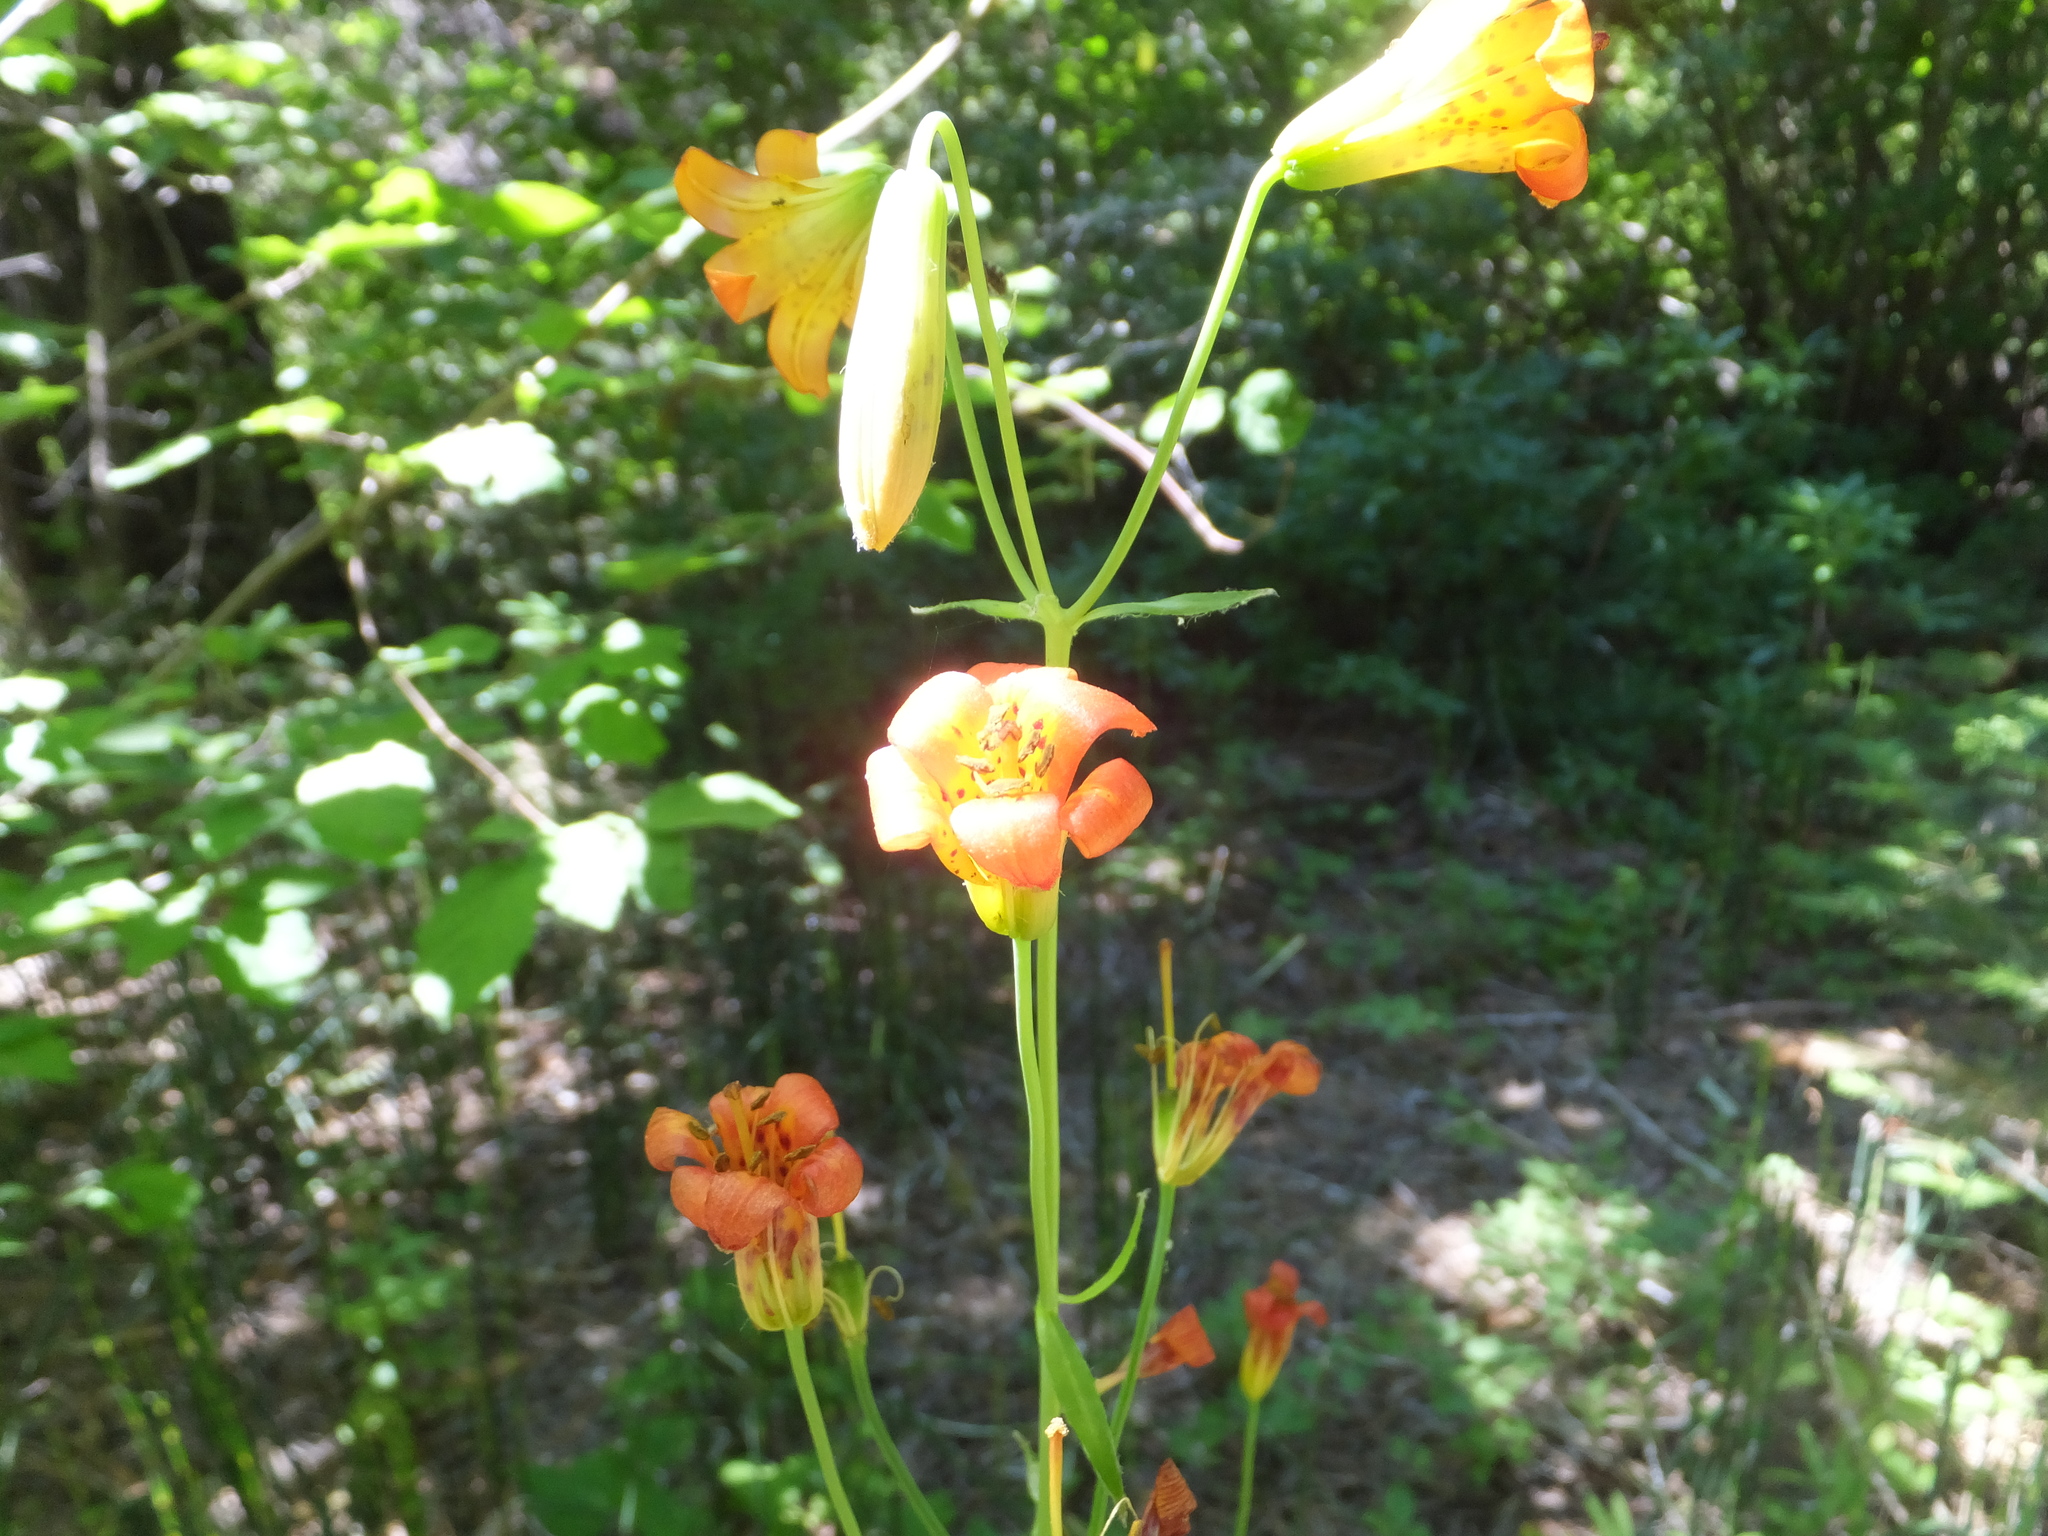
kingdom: Plantae
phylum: Tracheophyta
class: Liliopsida
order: Liliales
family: Liliaceae
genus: Lilium
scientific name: Lilium parvum
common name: Alpine lily
